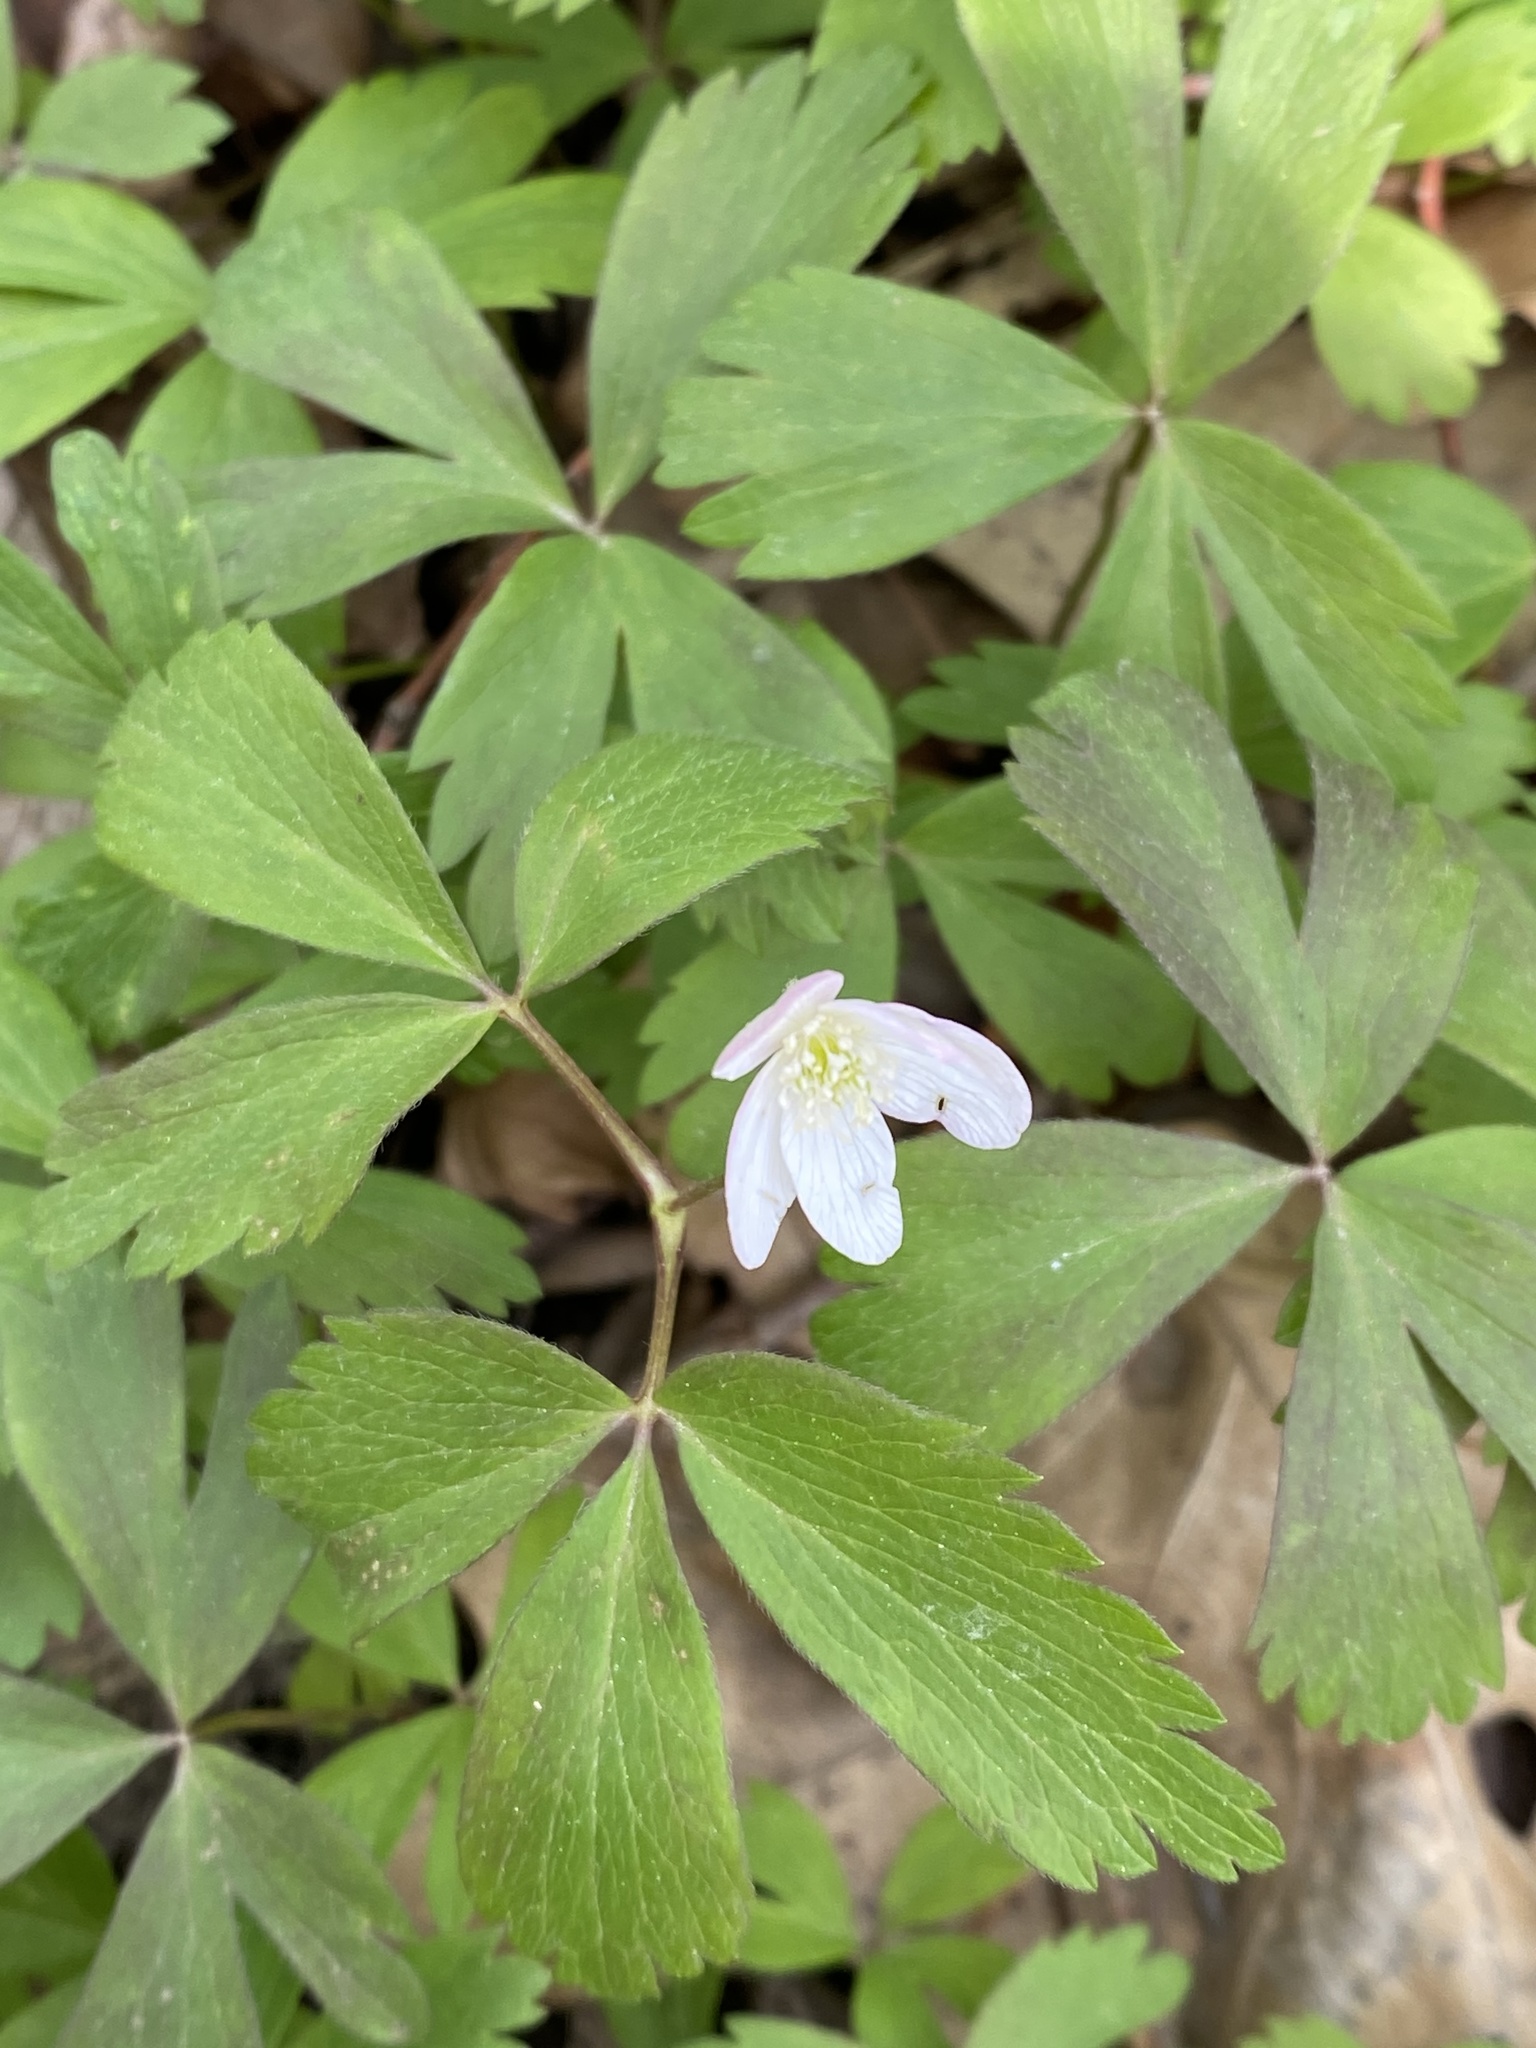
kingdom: Plantae
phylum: Tracheophyta
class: Magnoliopsida
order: Ranunculales
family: Ranunculaceae
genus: Anemone
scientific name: Anemone quinquefolia
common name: Wood anemone
